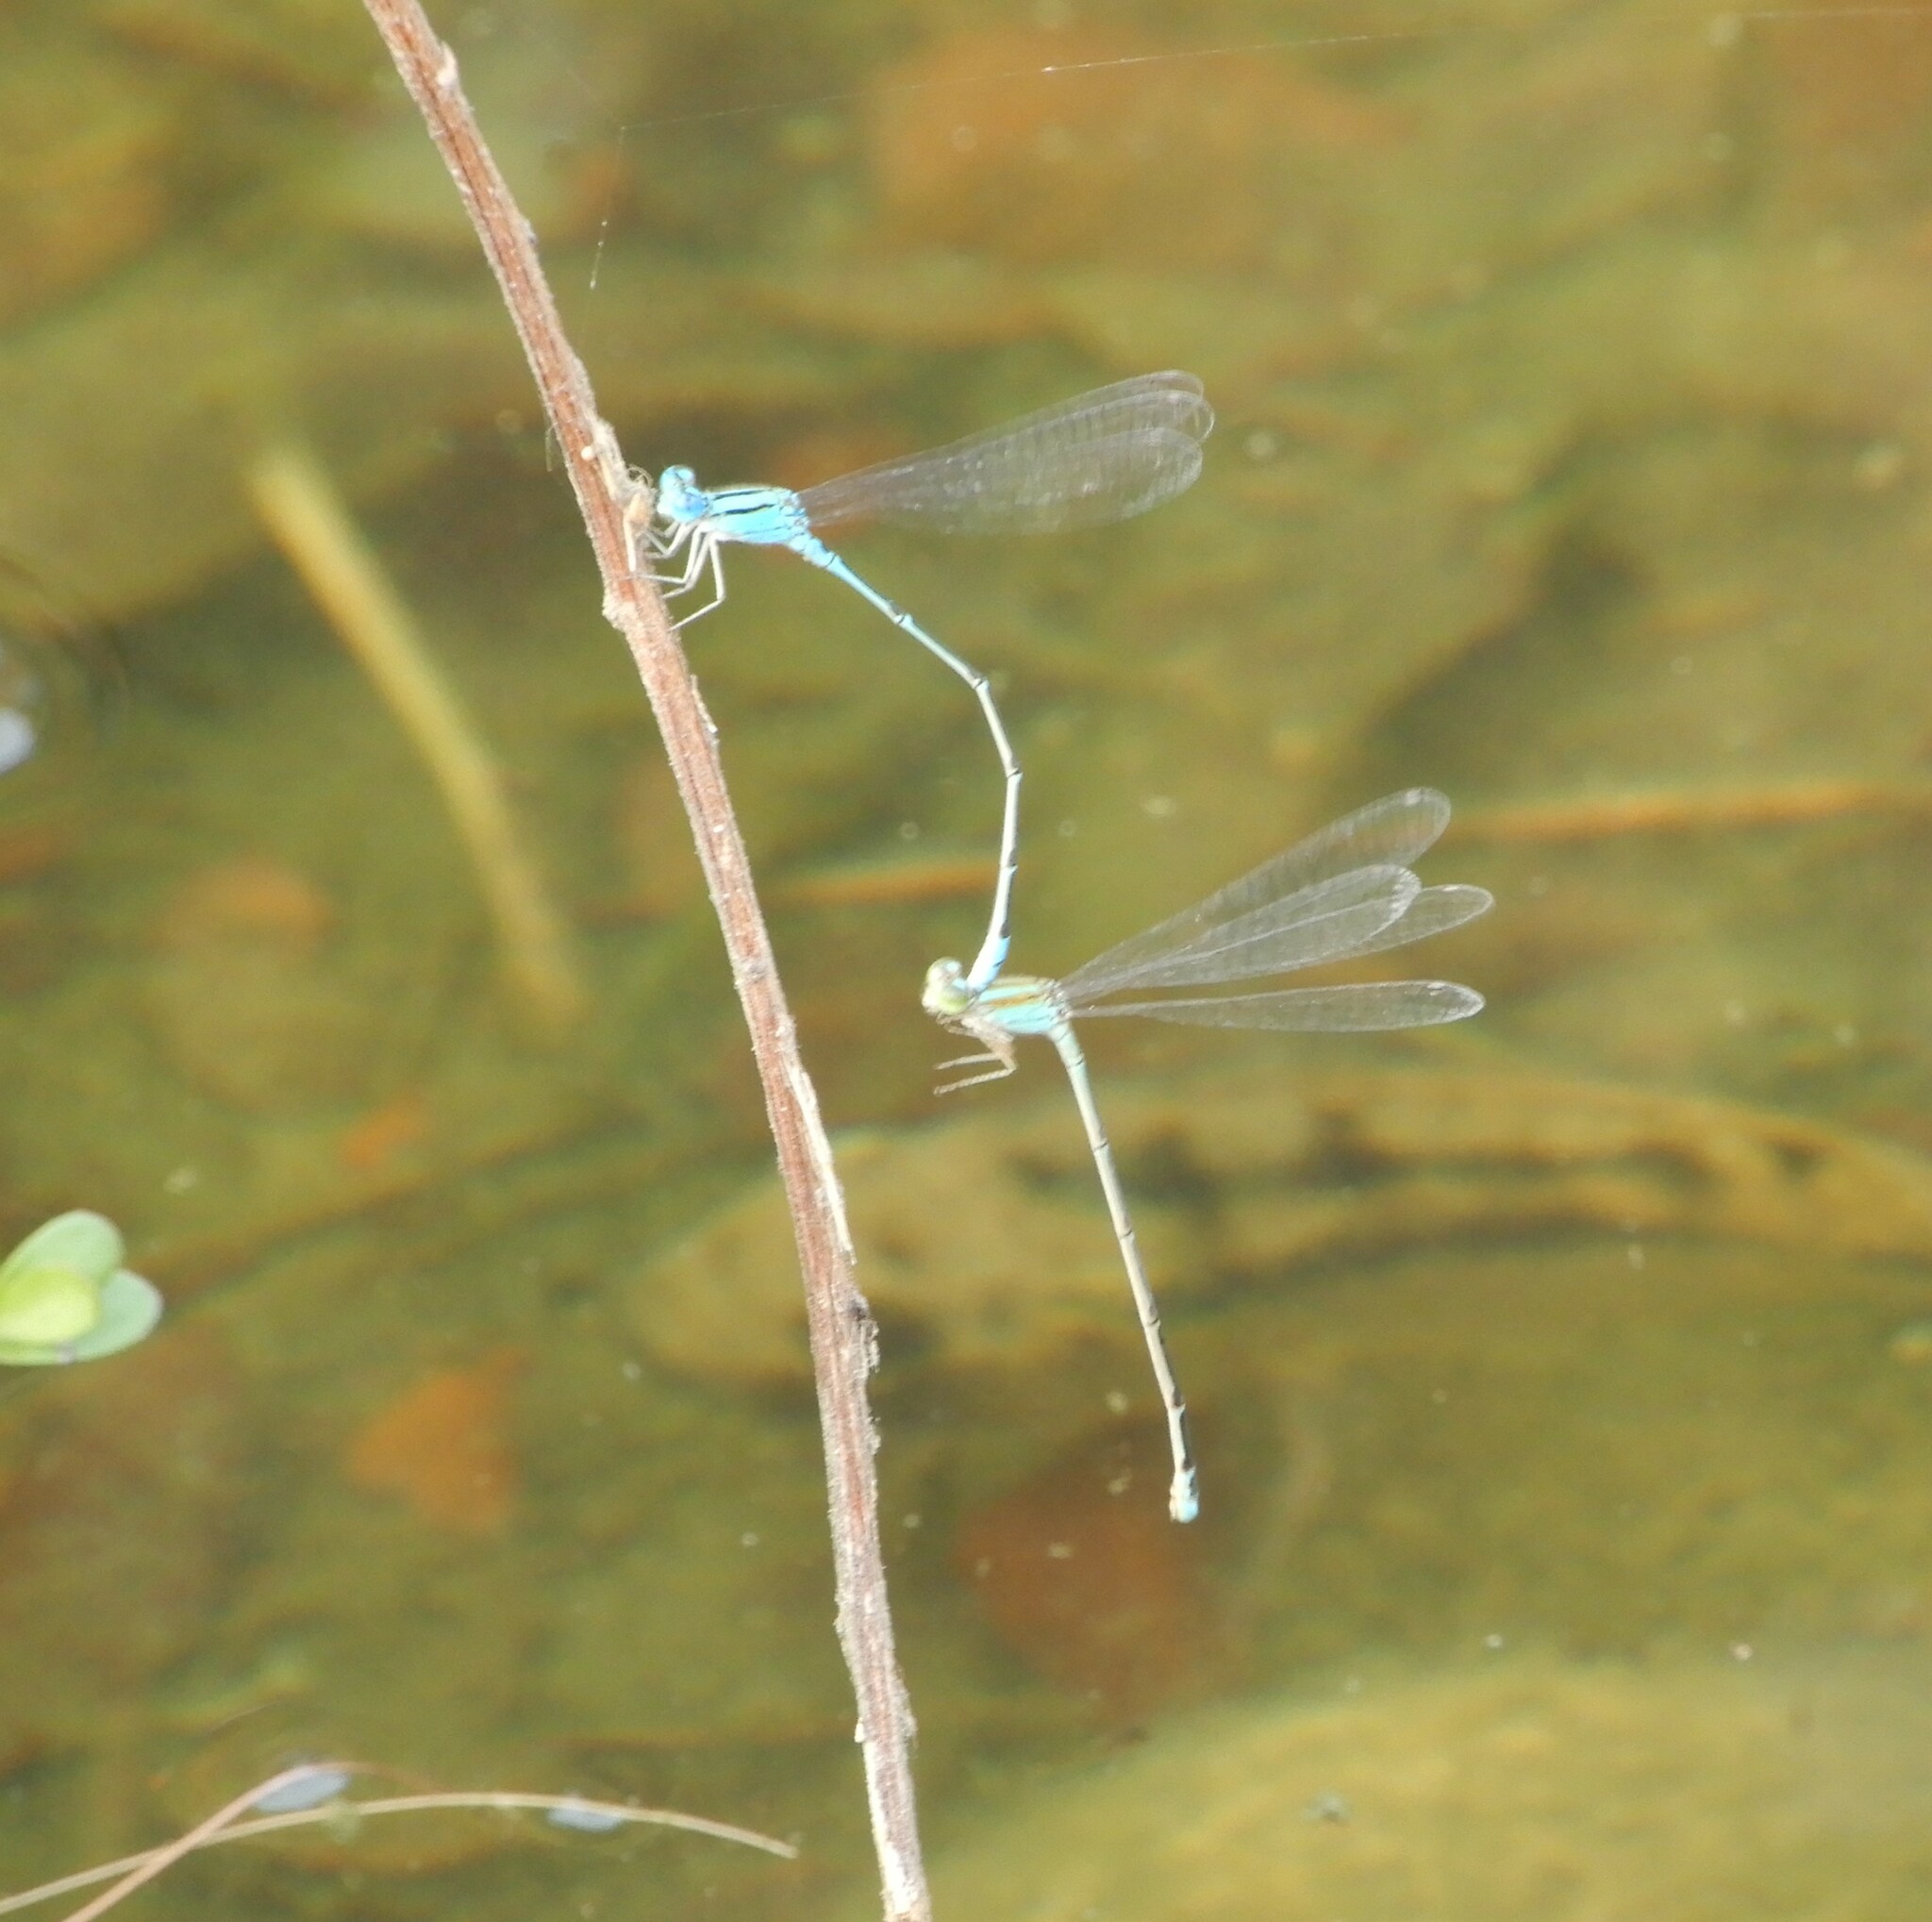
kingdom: Animalia
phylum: Arthropoda
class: Insecta
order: Odonata
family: Coenagrionidae
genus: Pseudagrion
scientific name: Pseudagrion microcephalum
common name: Blue riverdamsel
